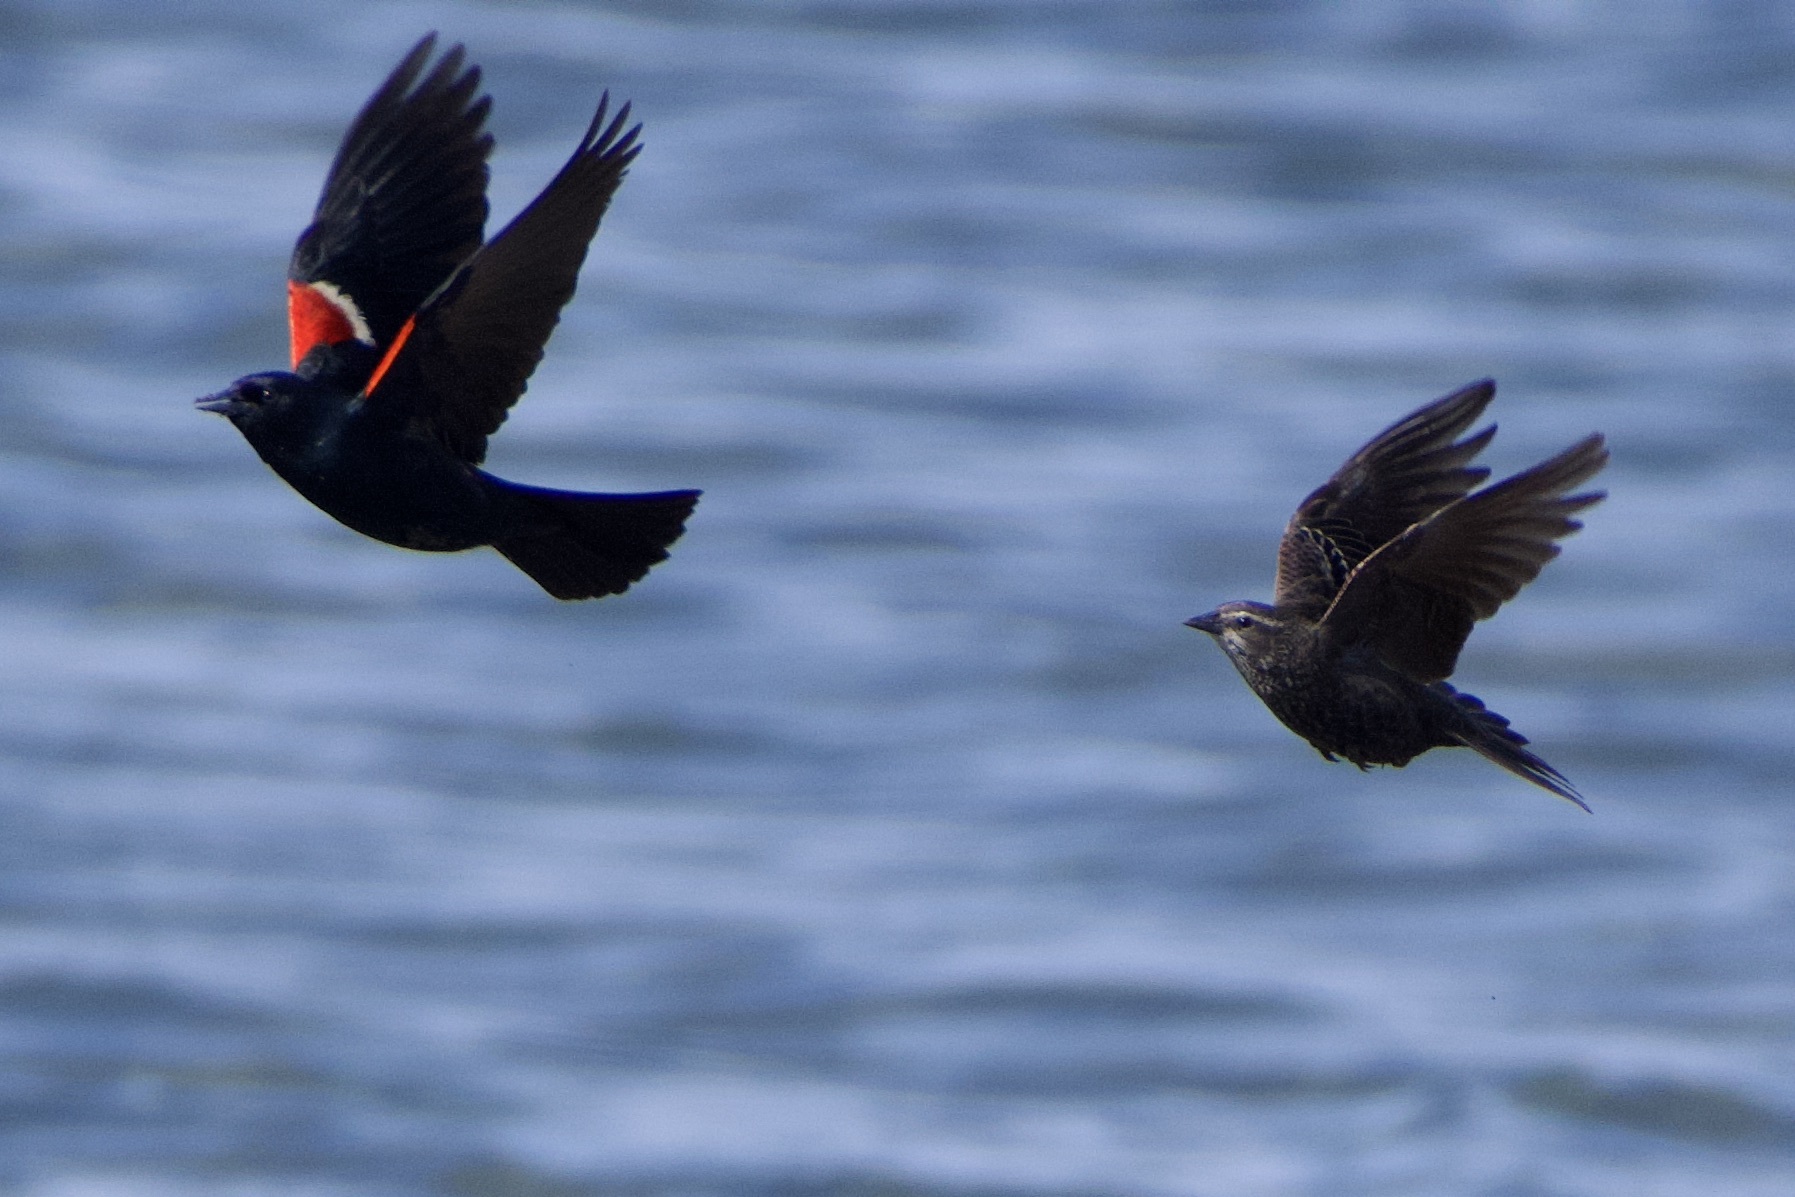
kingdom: Animalia
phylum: Chordata
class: Aves
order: Passeriformes
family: Icteridae
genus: Agelaius
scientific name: Agelaius tricolor
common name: Tricolored blackbird
